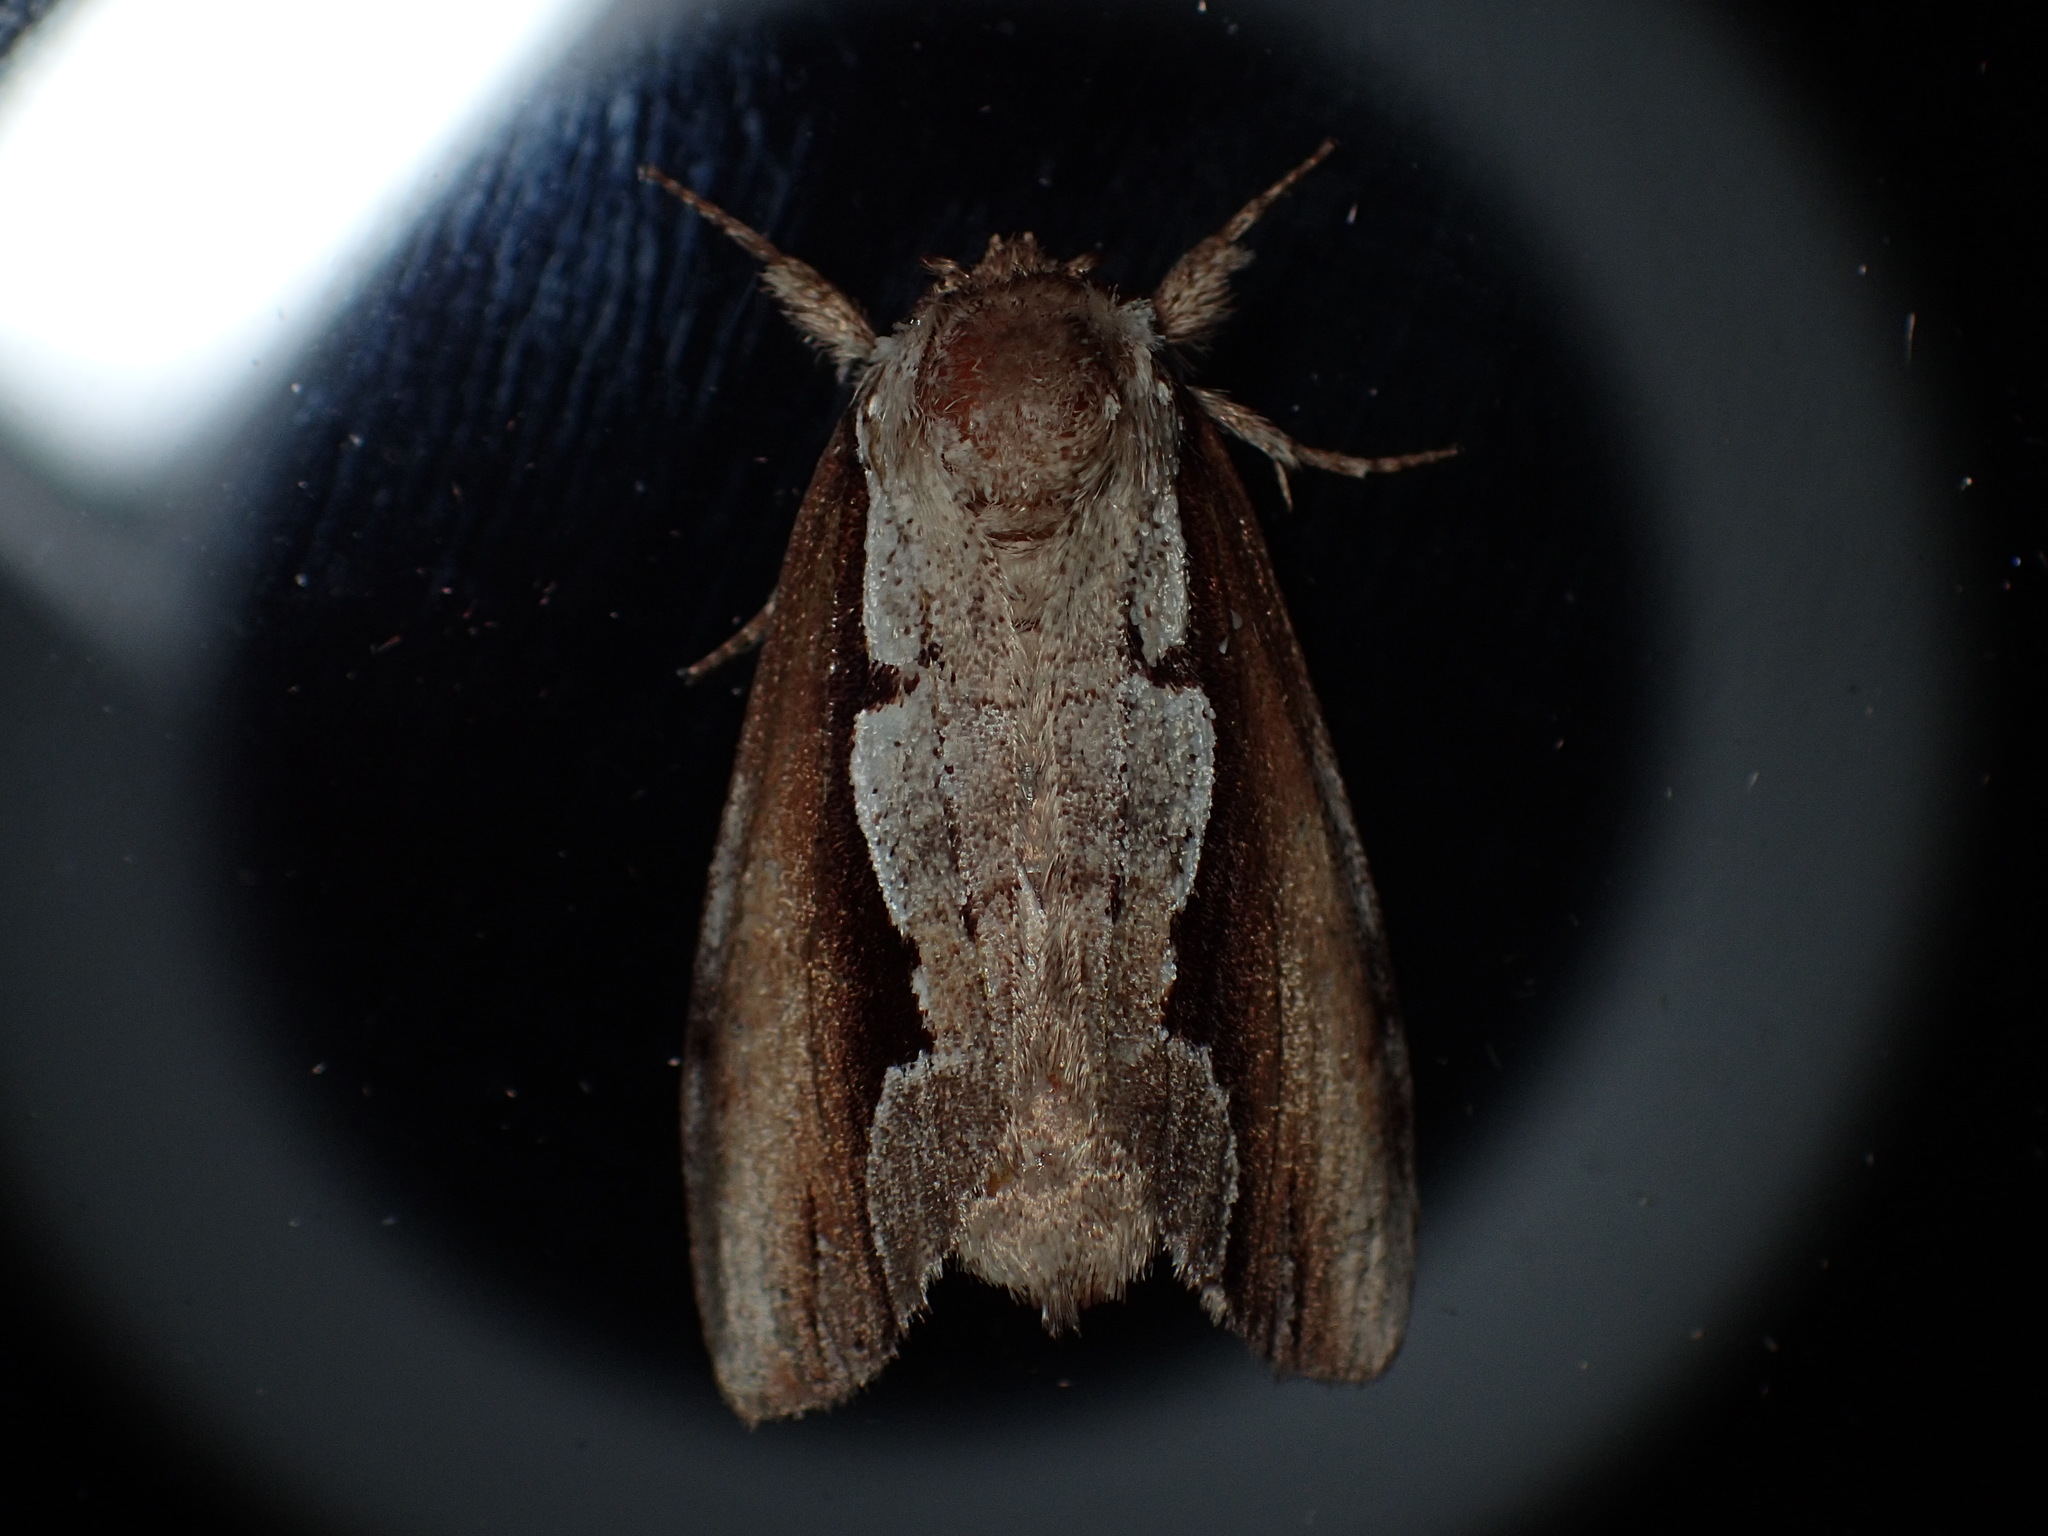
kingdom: Animalia
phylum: Arthropoda
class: Insecta
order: Lepidoptera
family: Notodontidae
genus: Nerice
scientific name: Nerice bidentata
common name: Double-toothed prominent
